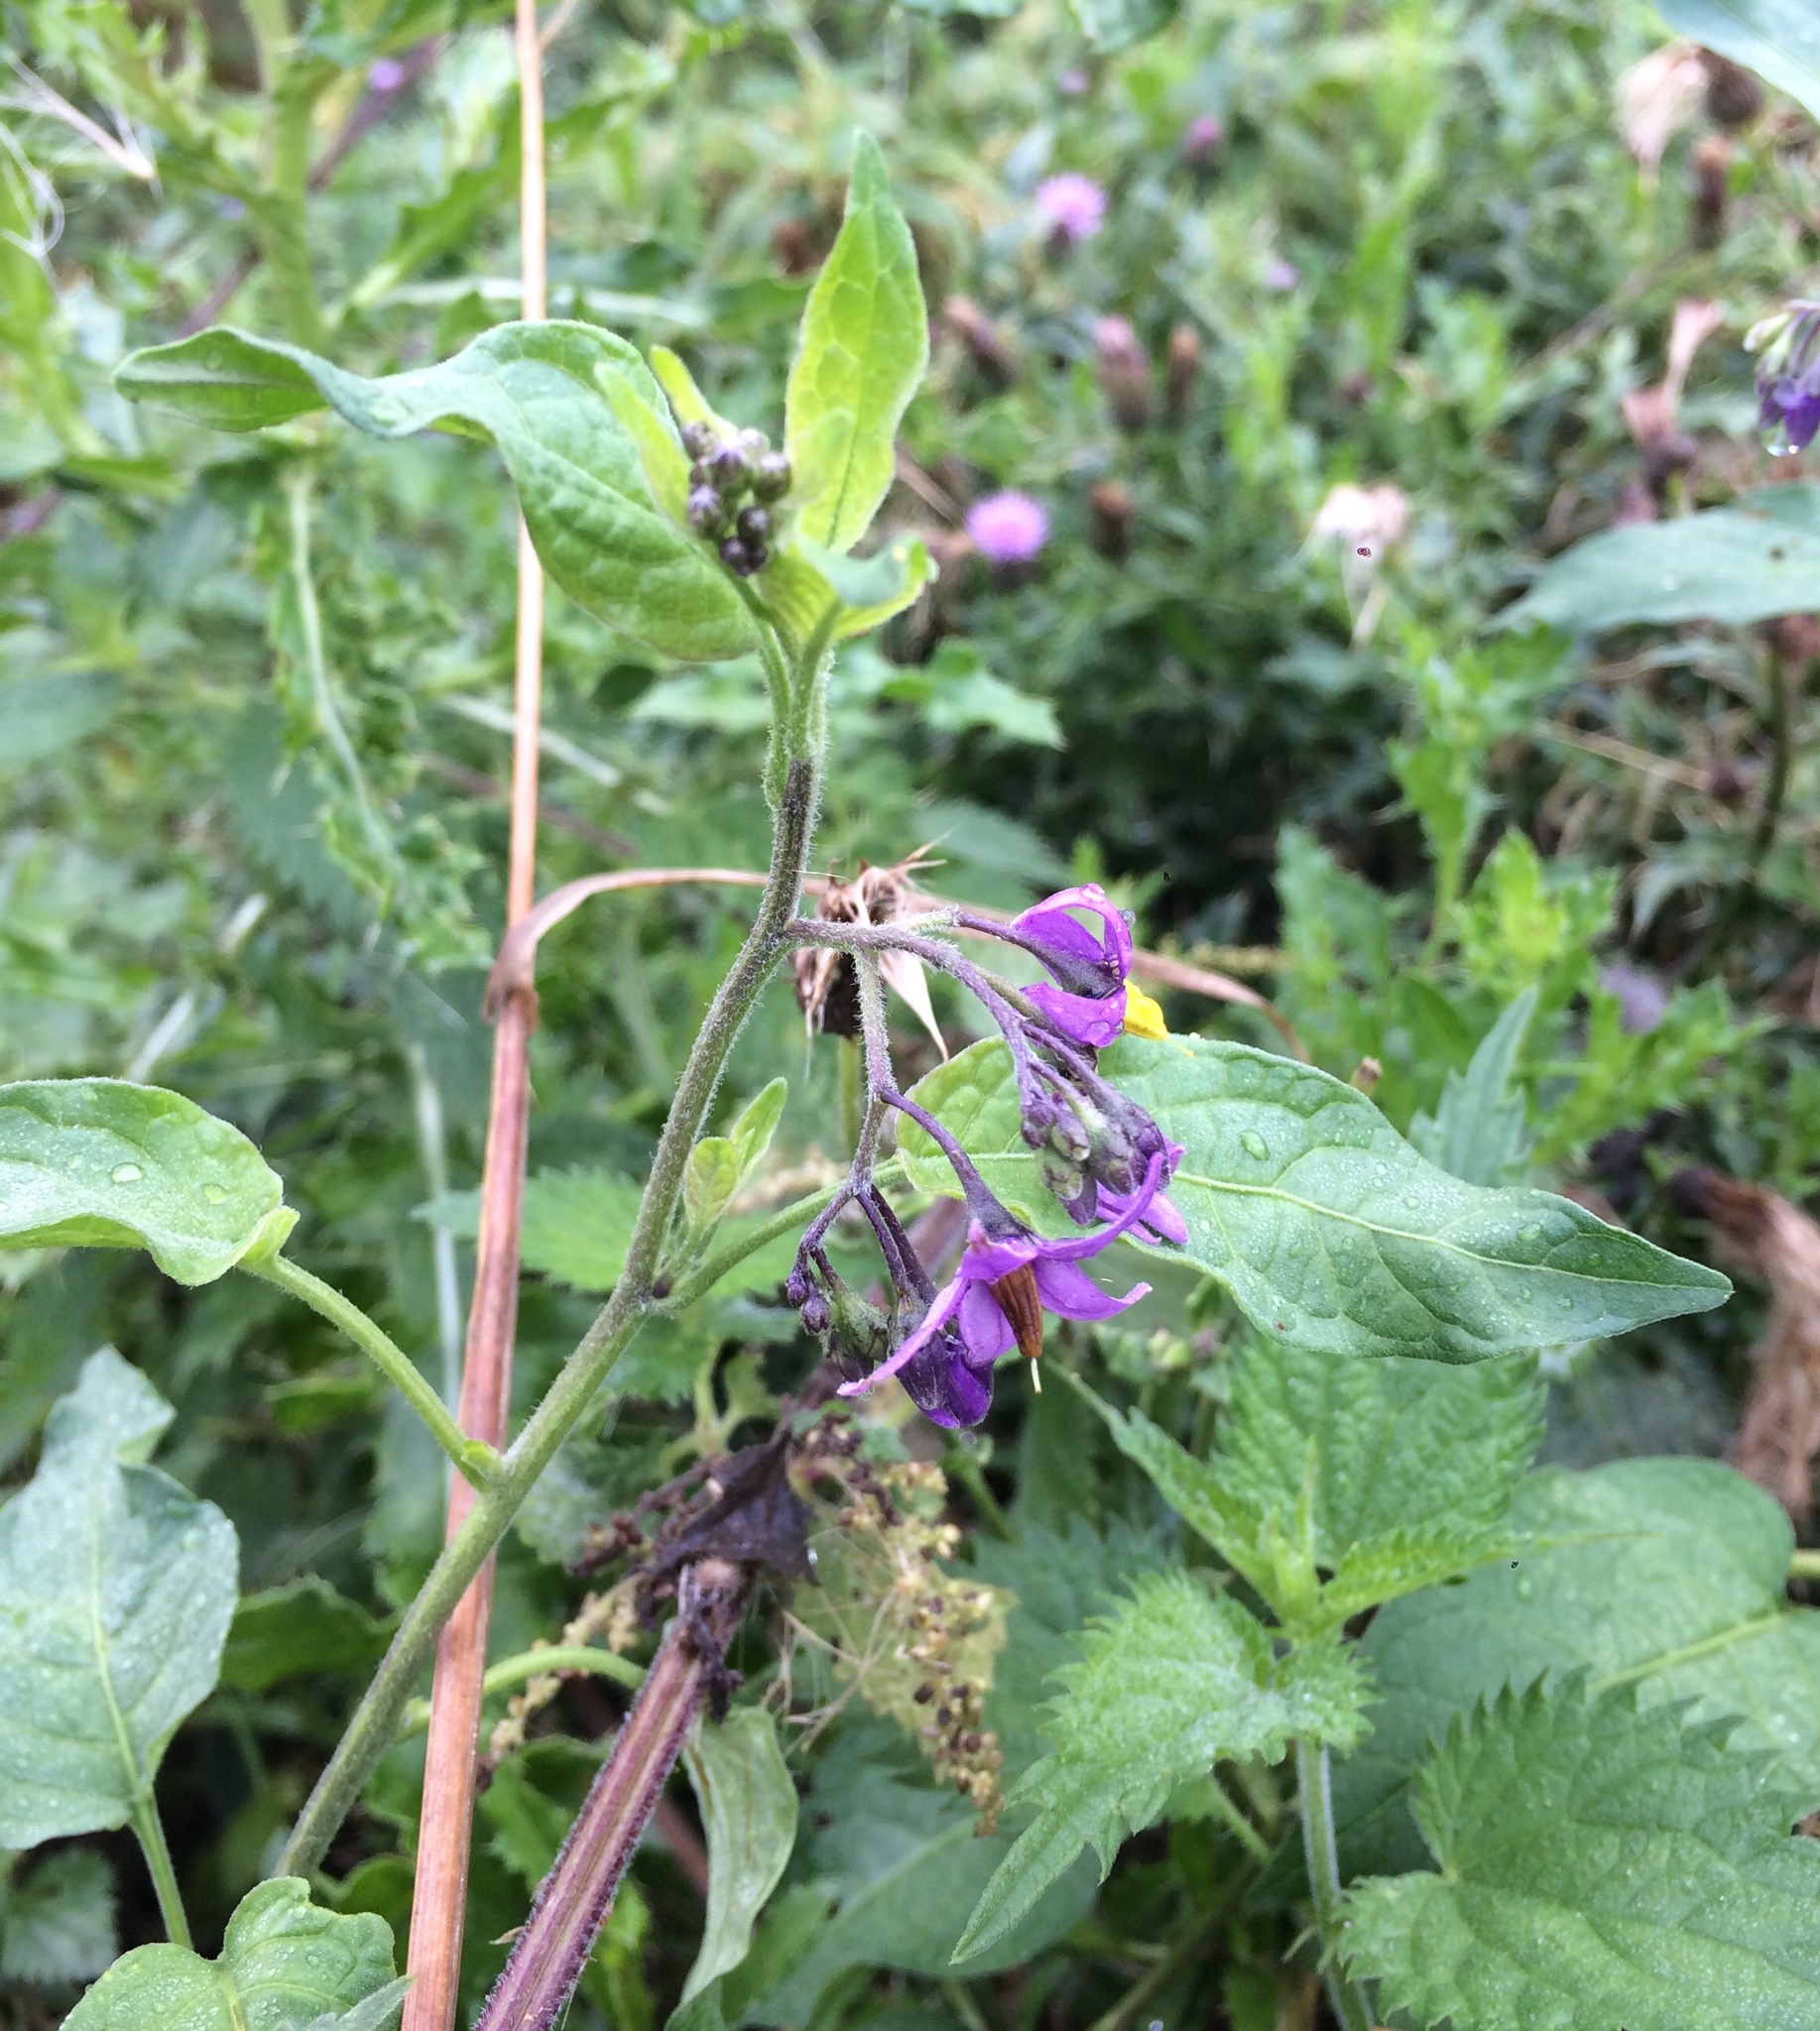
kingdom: Plantae
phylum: Tracheophyta
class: Magnoliopsida
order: Solanales
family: Solanaceae
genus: Solanum
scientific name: Solanum dulcamara
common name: Climbing nightshade
